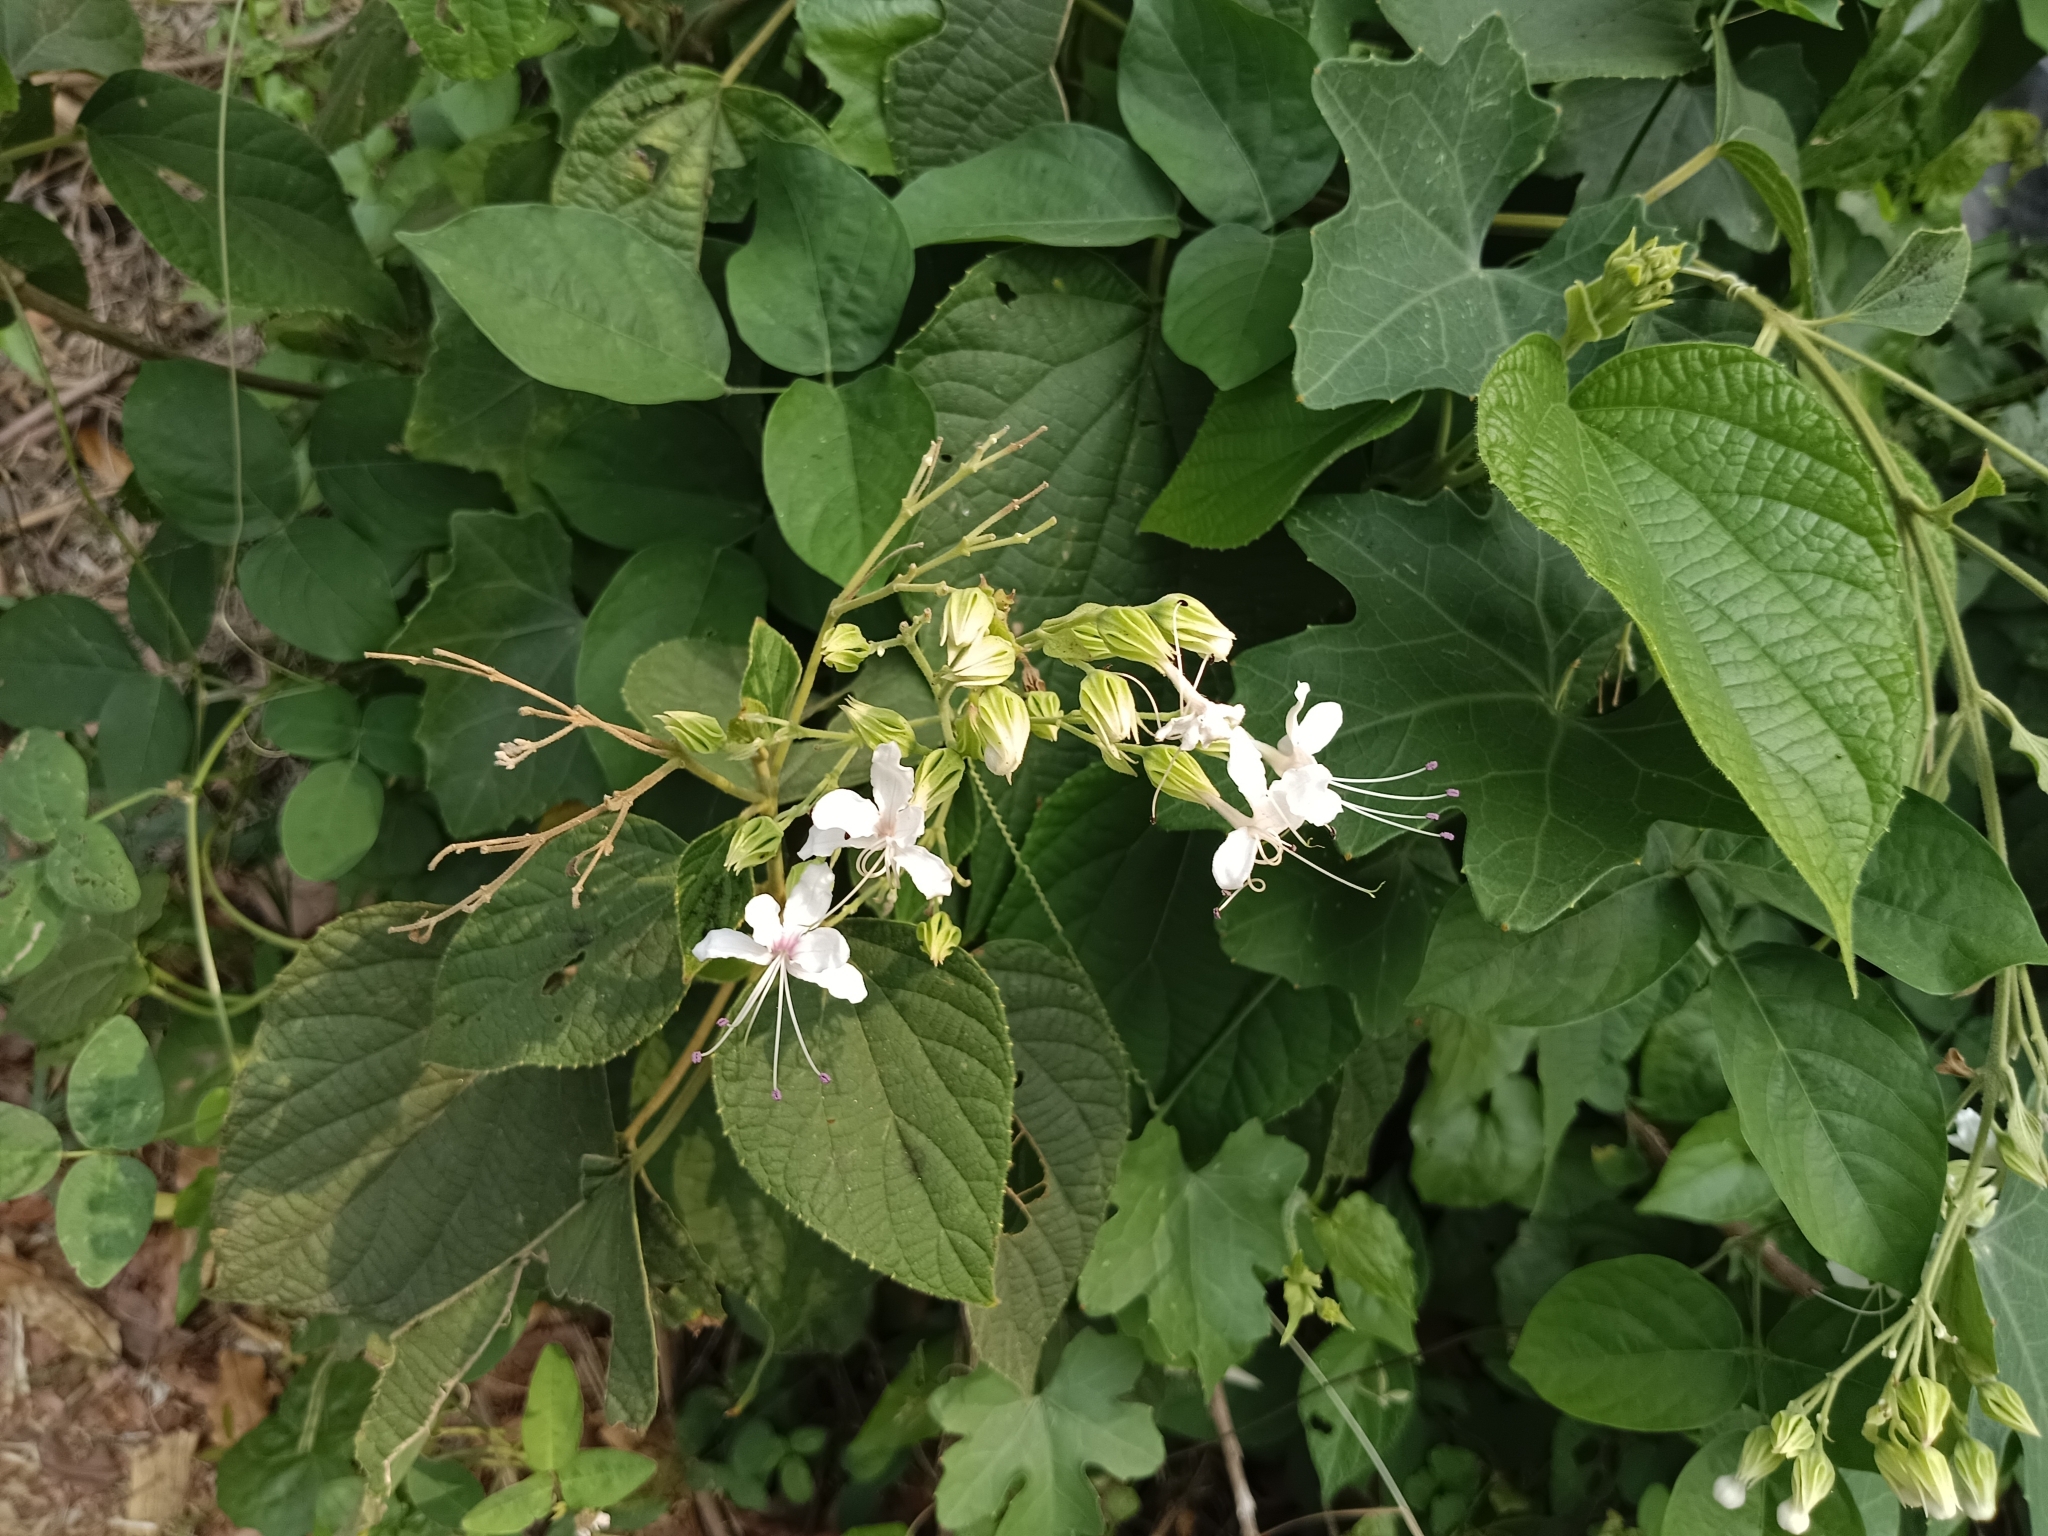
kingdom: Plantae
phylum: Tracheophyta
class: Magnoliopsida
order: Lamiales
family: Lamiaceae
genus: Clerodendrum
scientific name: Clerodendrum infortunatum
